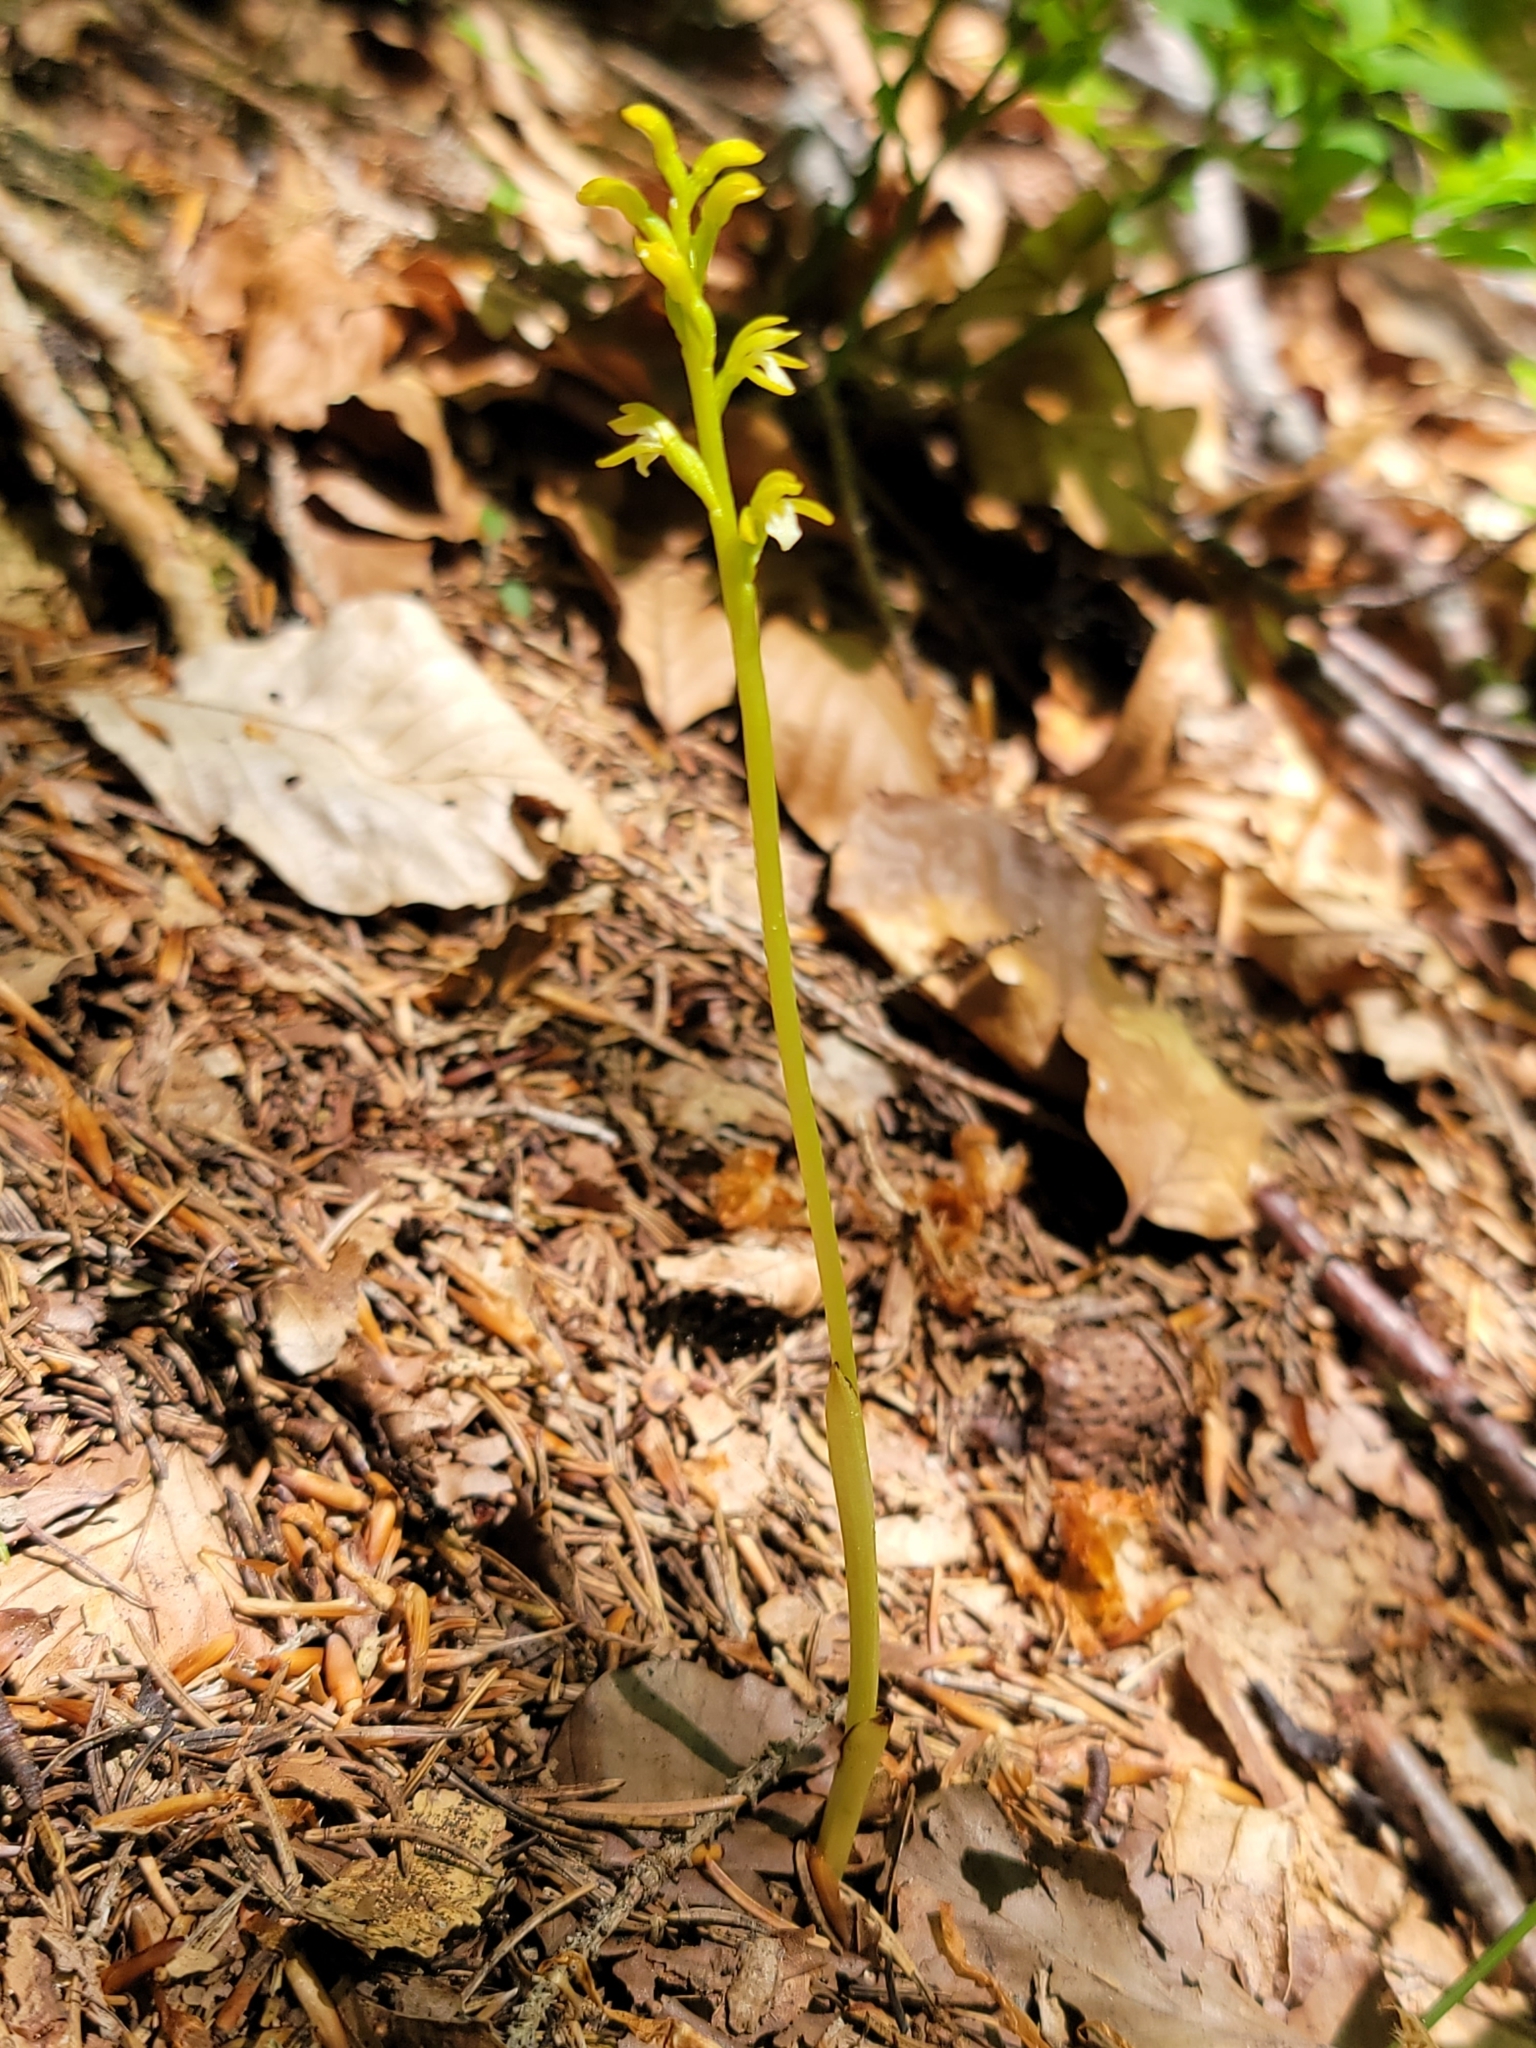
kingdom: Plantae
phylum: Tracheophyta
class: Liliopsida
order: Asparagales
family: Orchidaceae
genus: Corallorhiza
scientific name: Corallorhiza trifida
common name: Yellow coralroot
